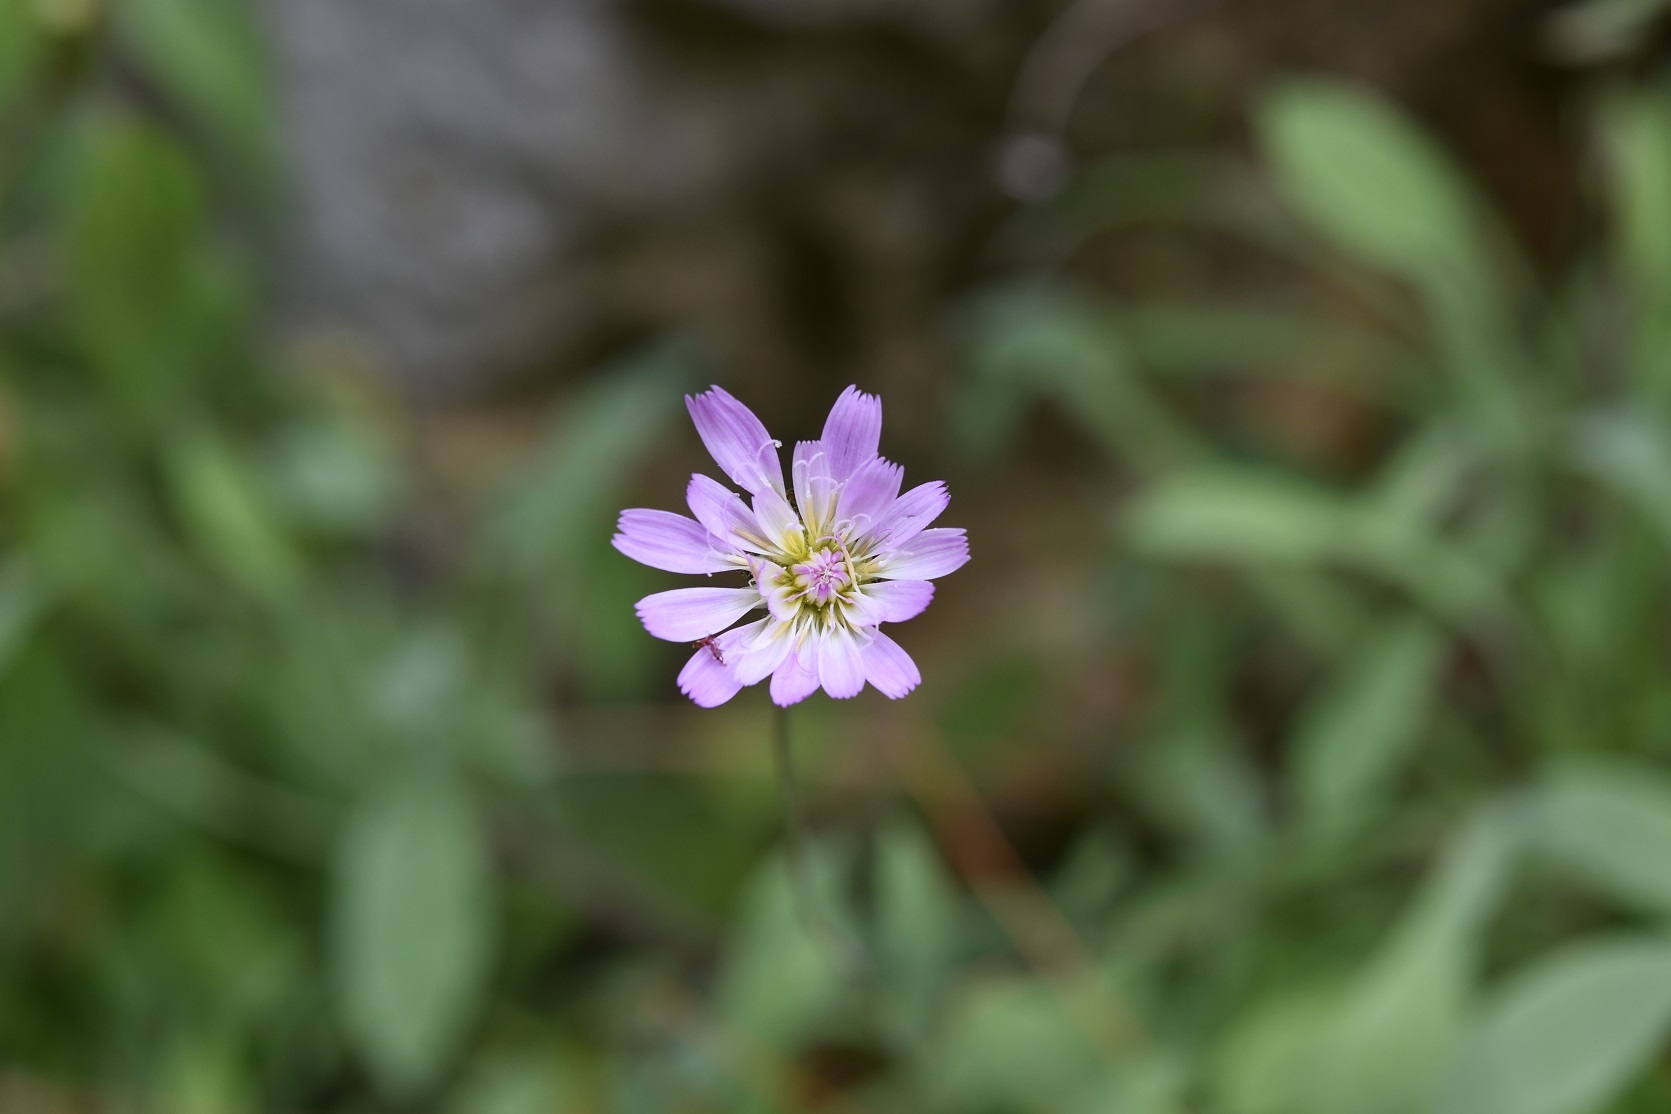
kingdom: Plantae
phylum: Tracheophyta
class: Magnoliopsida
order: Asterales
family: Asteraceae
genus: Pinaropappus
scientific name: Pinaropappus spathulatus
